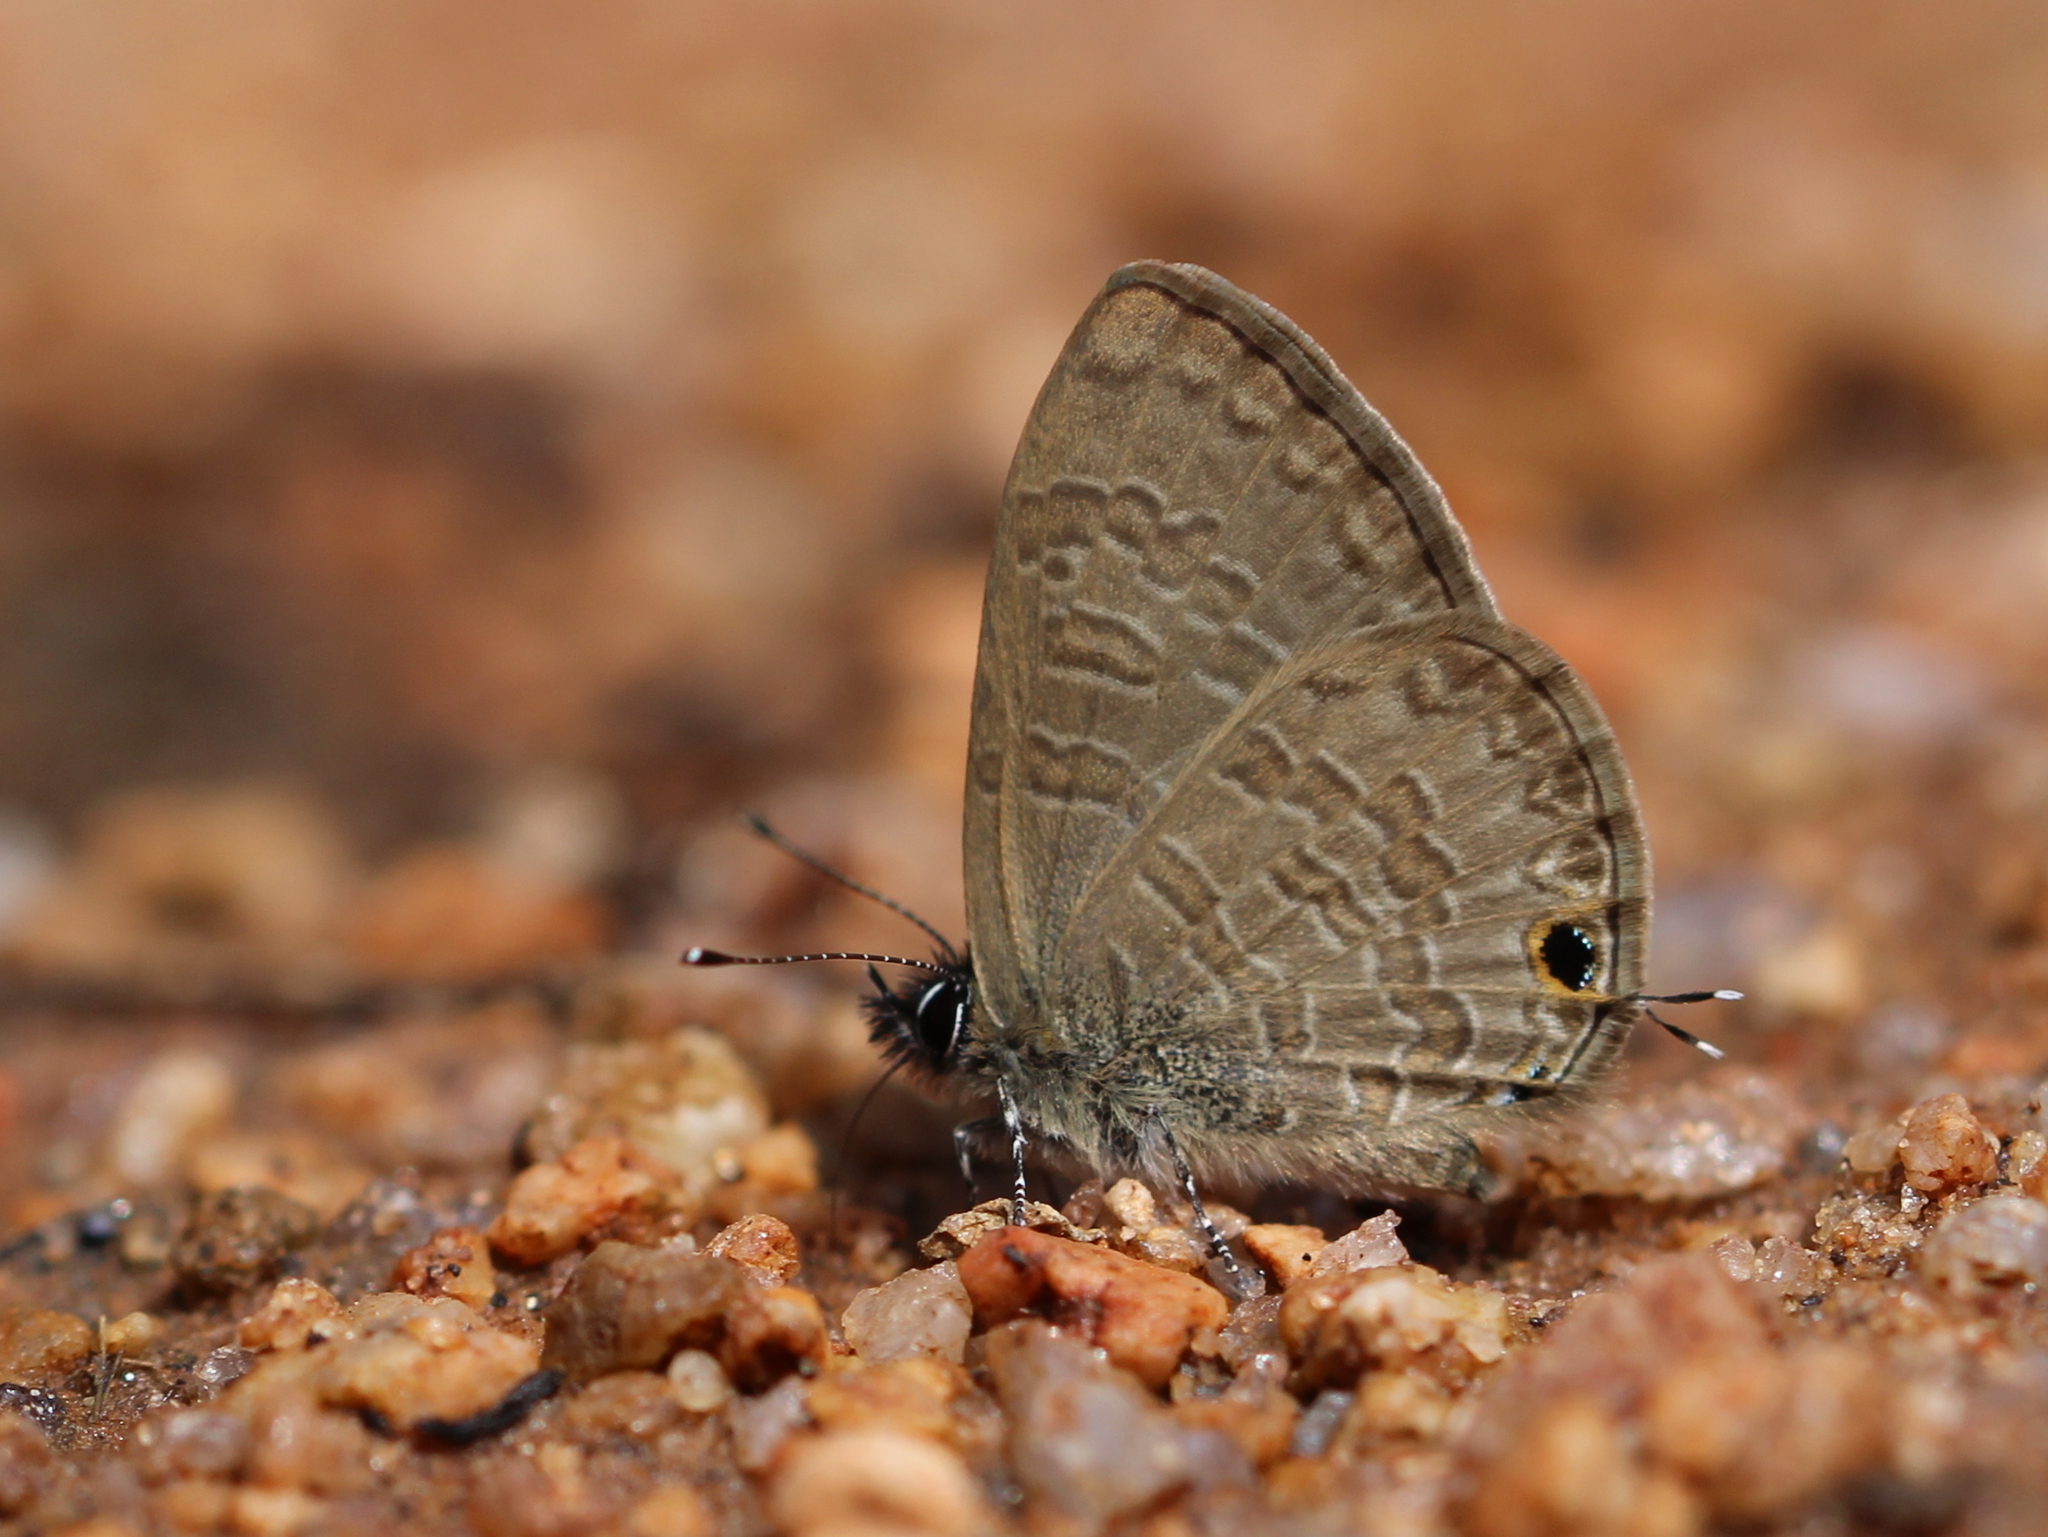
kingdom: Animalia
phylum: Arthropoda
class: Insecta
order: Lepidoptera
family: Lycaenidae
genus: Prosotas
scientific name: Prosotas nora
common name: Common line blue
